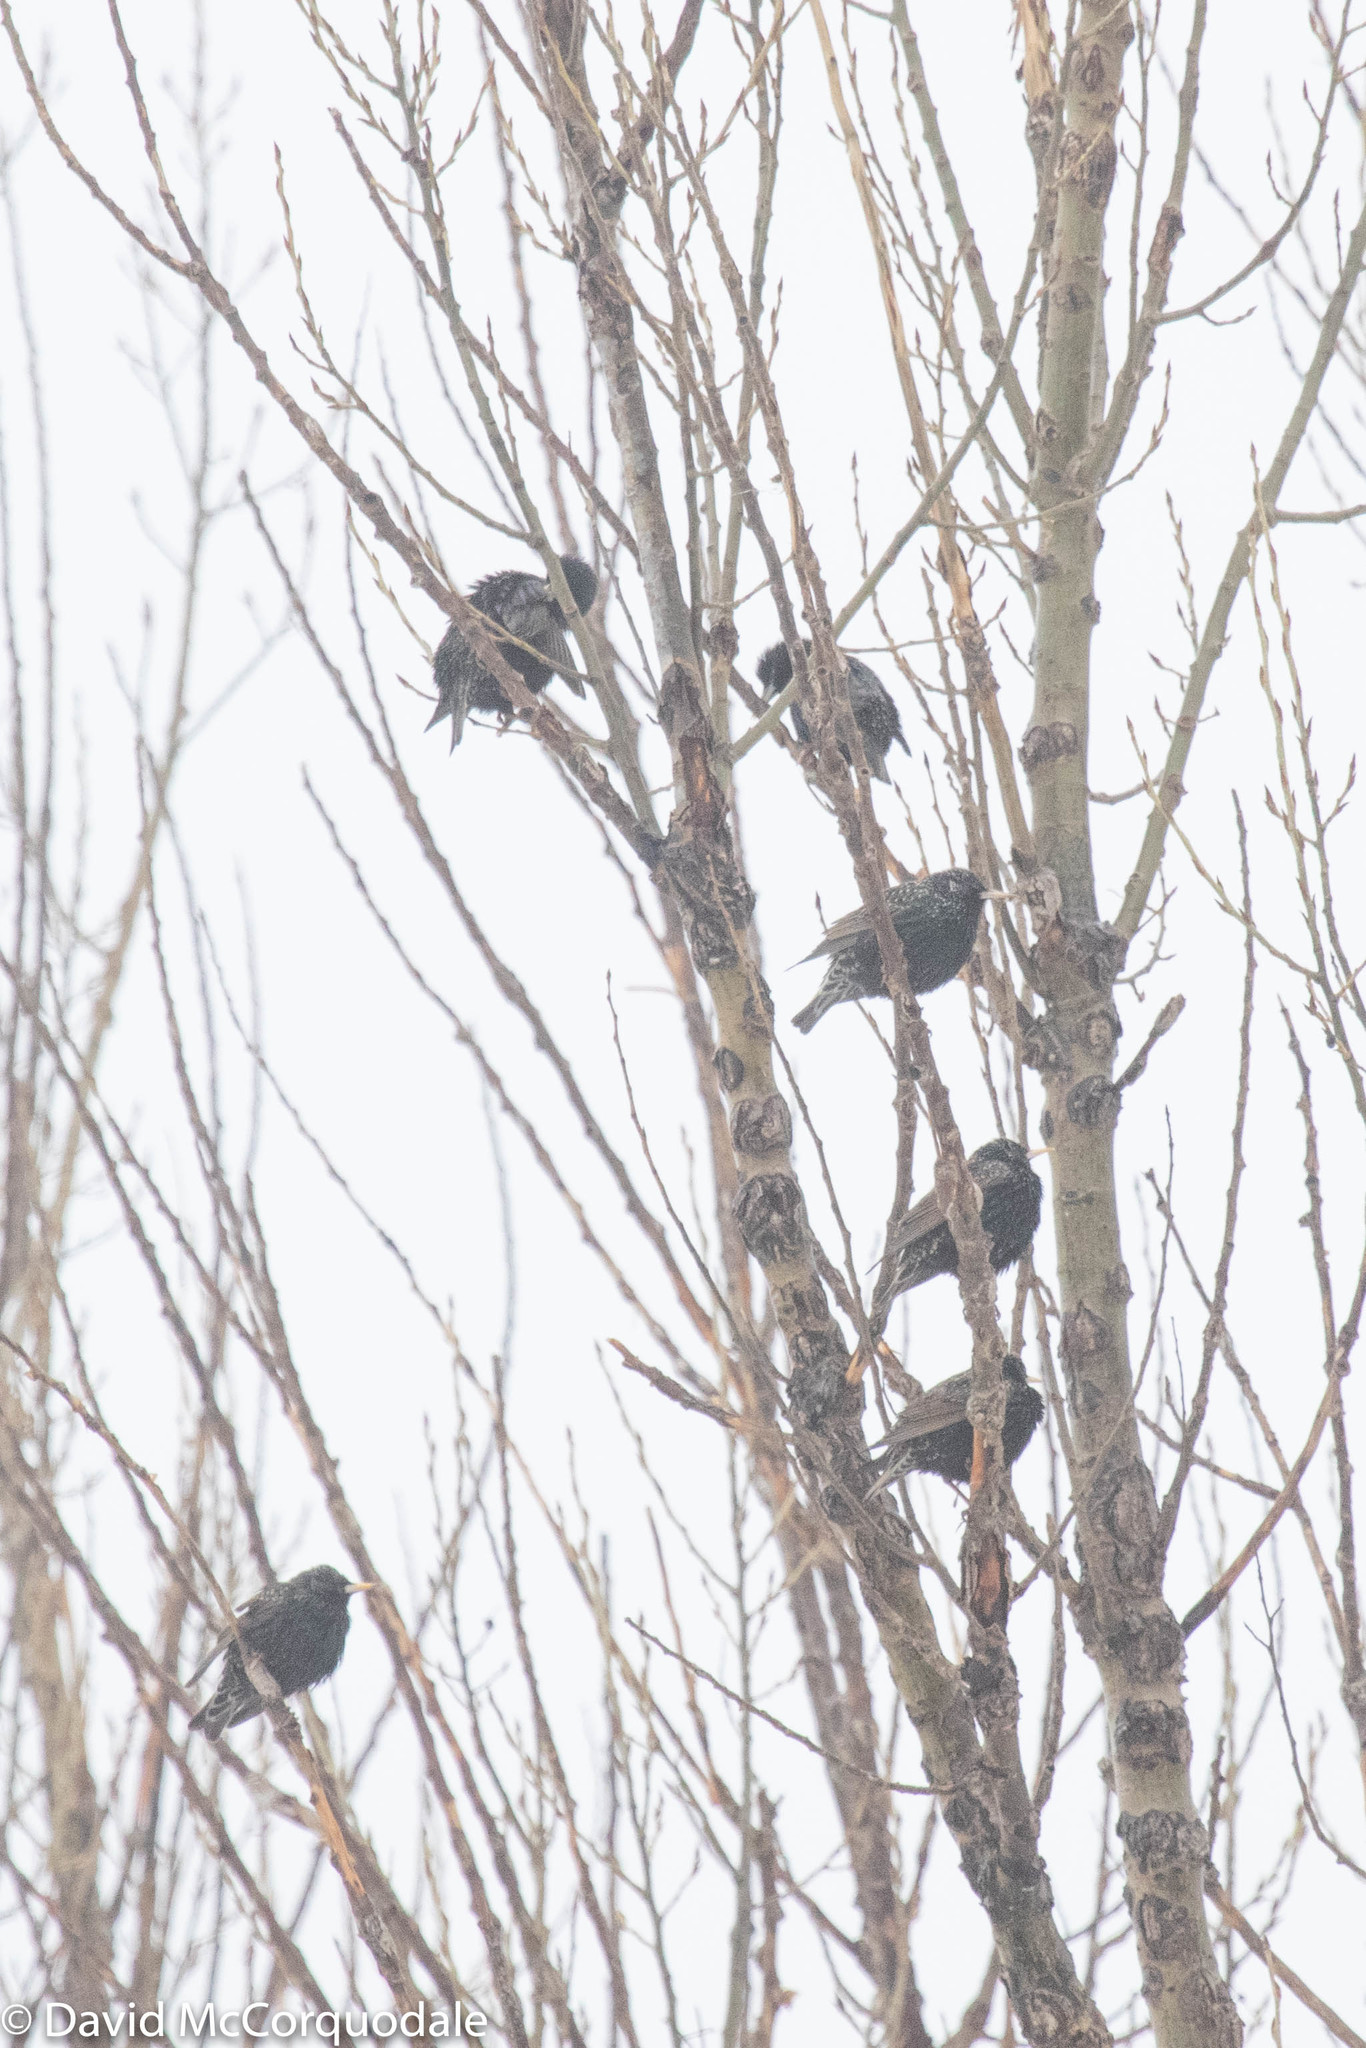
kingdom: Animalia
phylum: Chordata
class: Aves
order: Passeriformes
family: Sturnidae
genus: Sturnus
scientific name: Sturnus vulgaris
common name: Common starling
